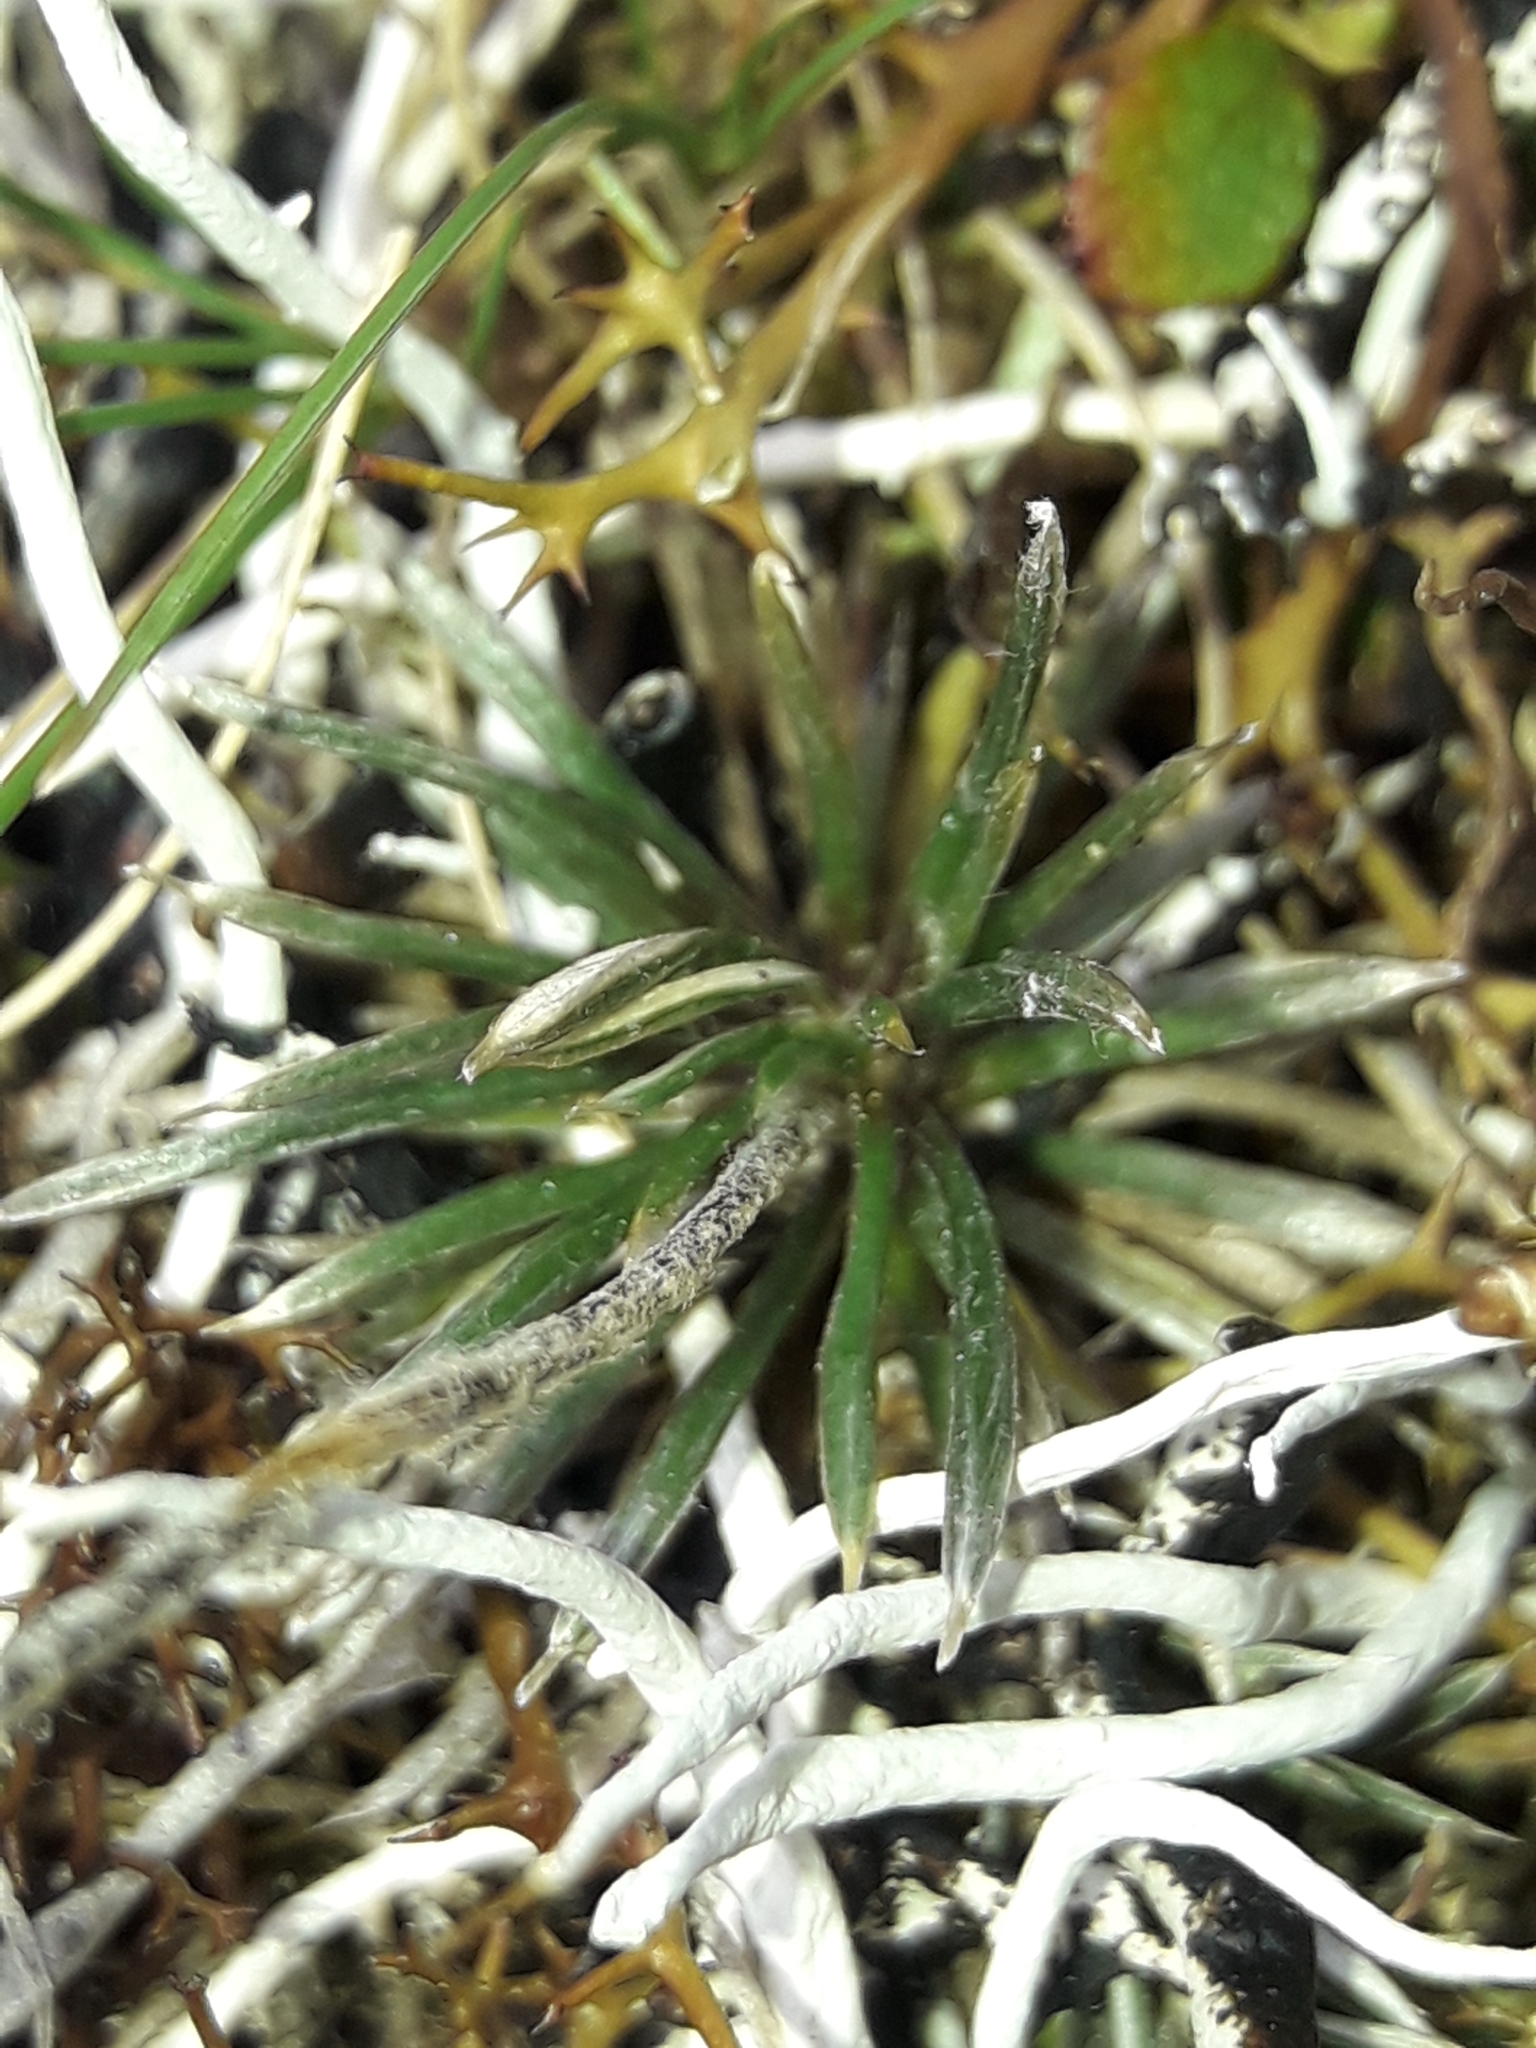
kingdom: Plantae
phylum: Tracheophyta
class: Magnoliopsida
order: Asterales
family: Asteraceae
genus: Celmisia
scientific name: Celmisia laricifolia
